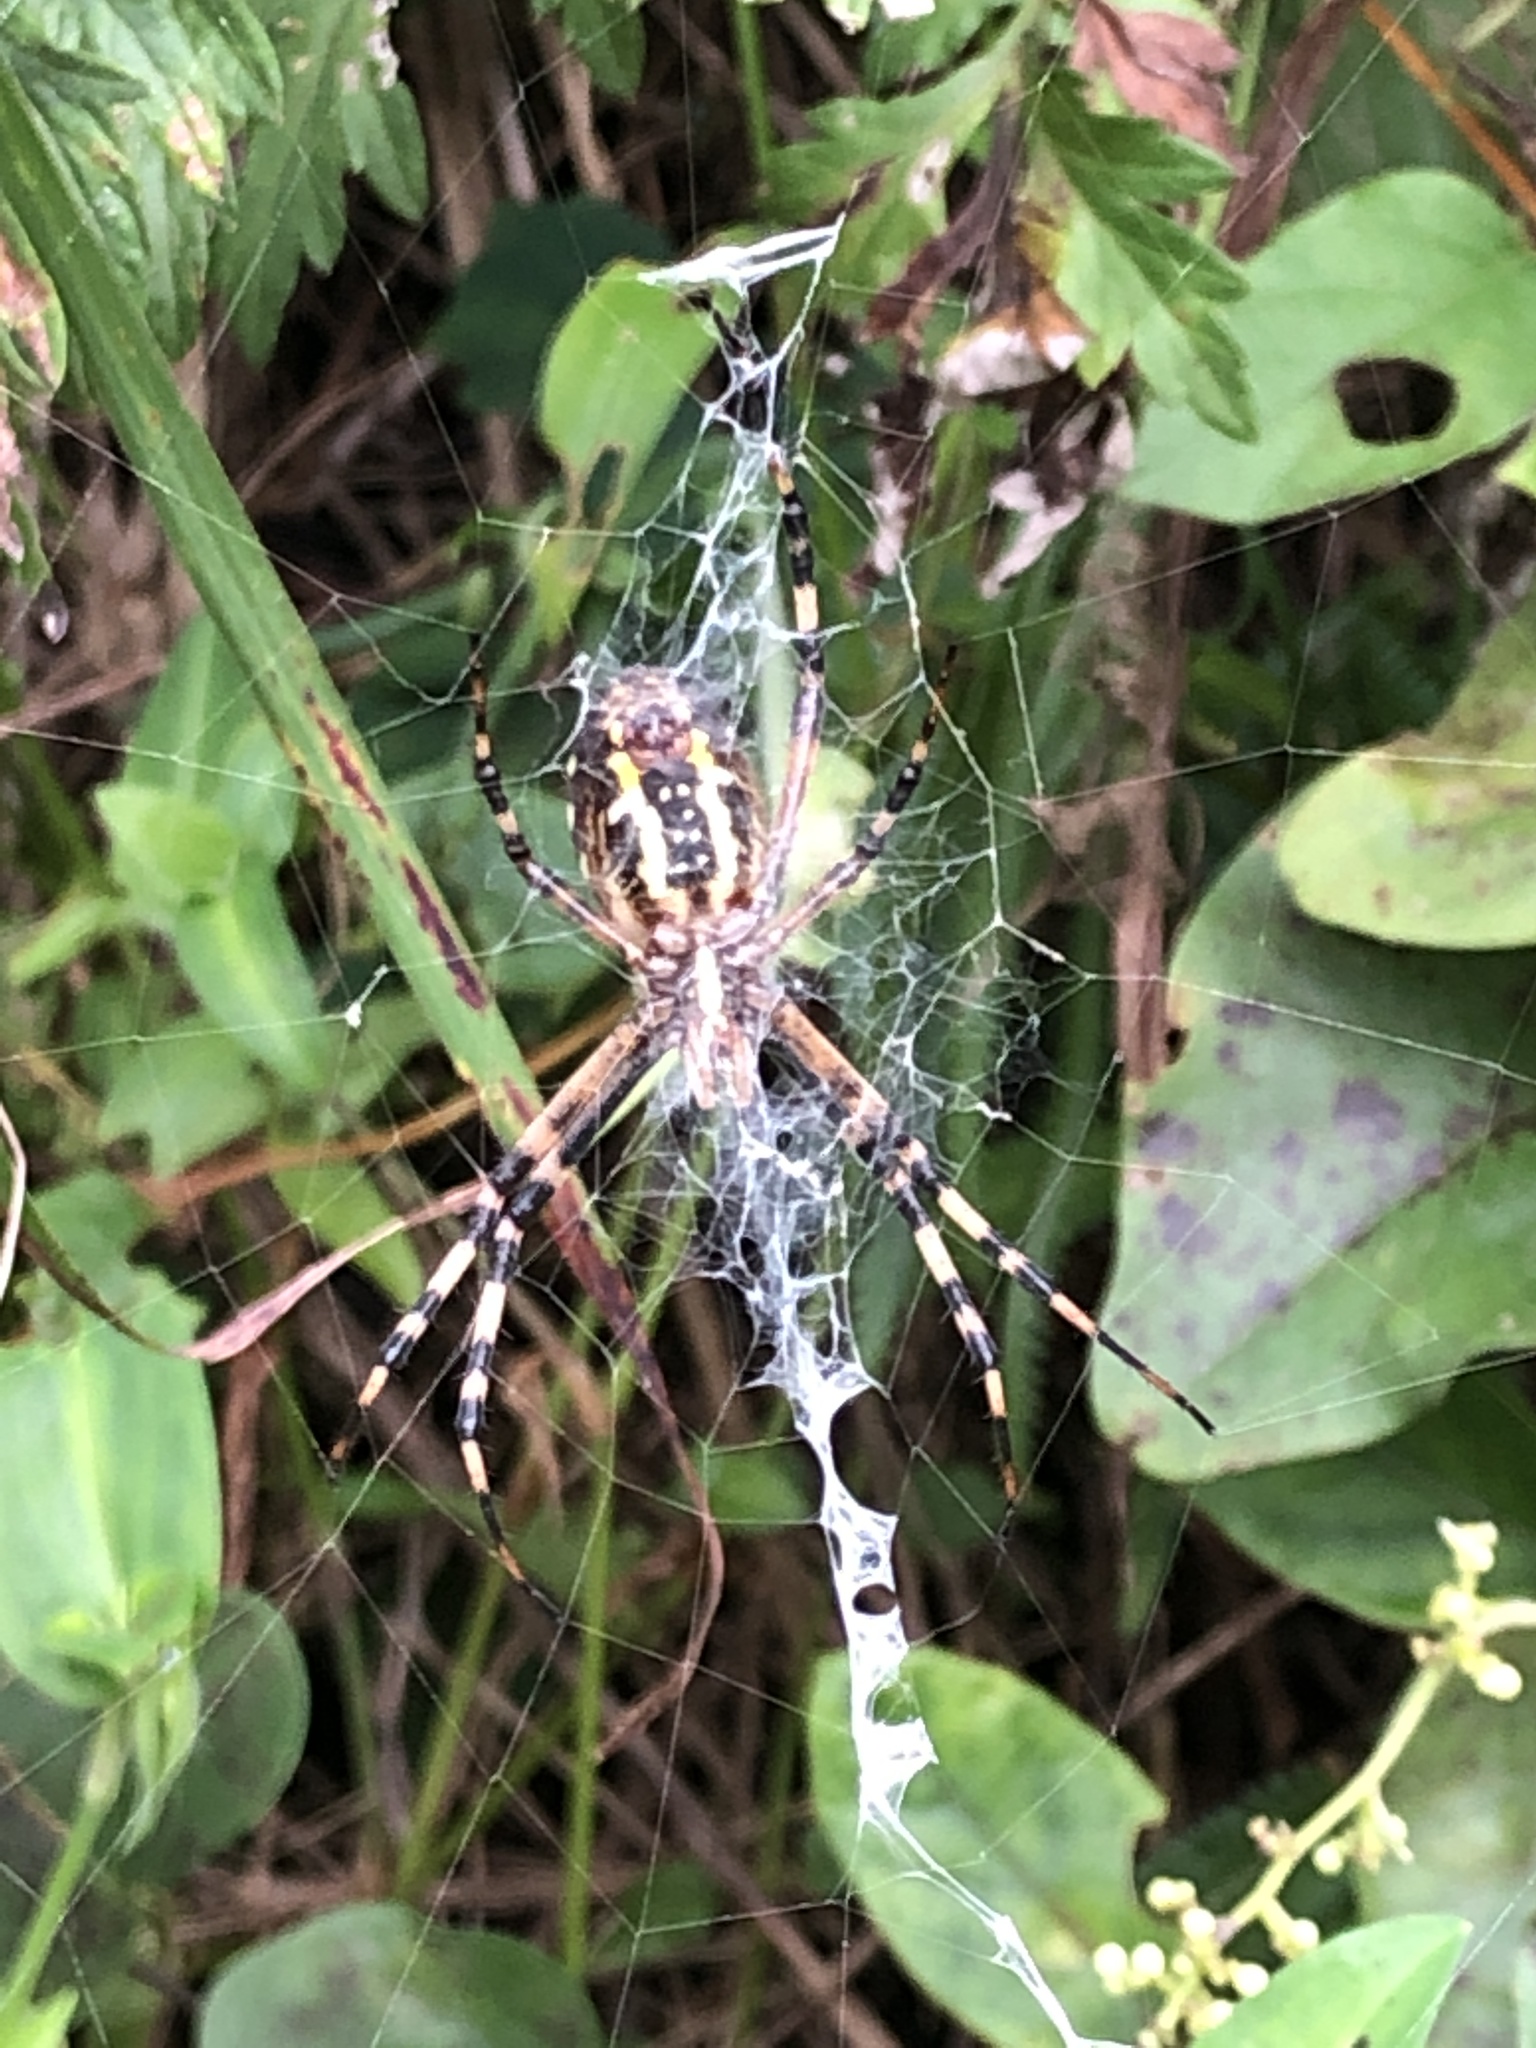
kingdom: Animalia
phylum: Arthropoda
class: Arachnida
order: Araneae
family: Araneidae
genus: Argiope
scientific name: Argiope bruennichi
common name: Wasp spider
